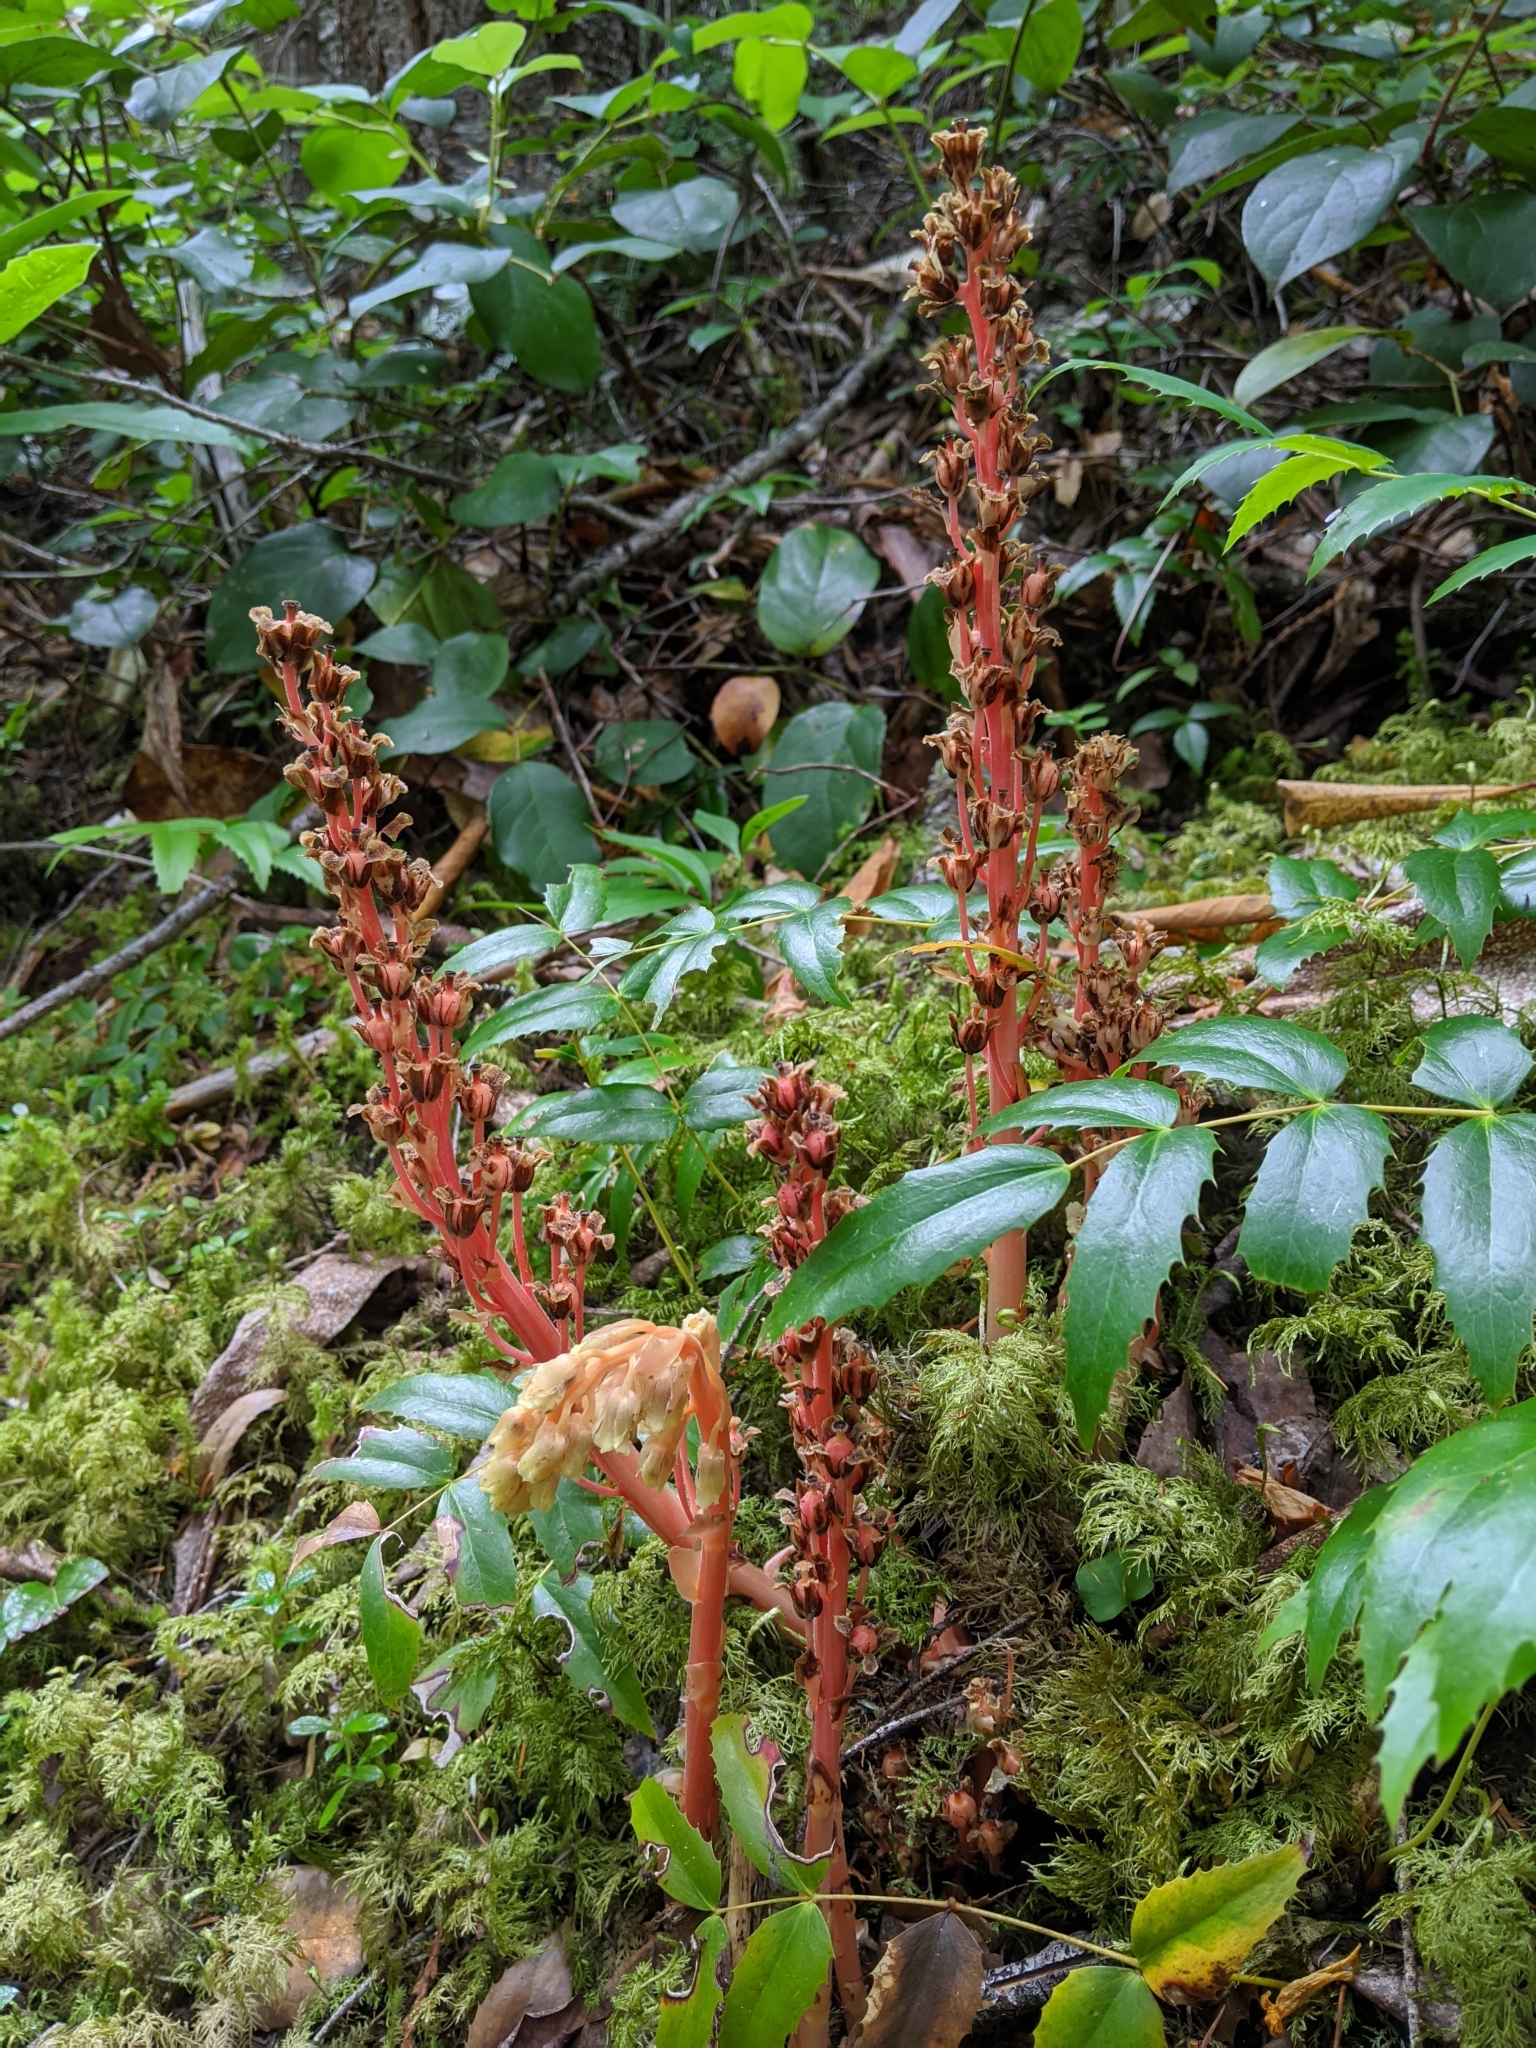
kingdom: Plantae
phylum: Tracheophyta
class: Magnoliopsida
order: Ericales
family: Ericaceae
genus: Hypopitys
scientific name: Hypopitys monotropa
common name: Yellow bird's-nest
